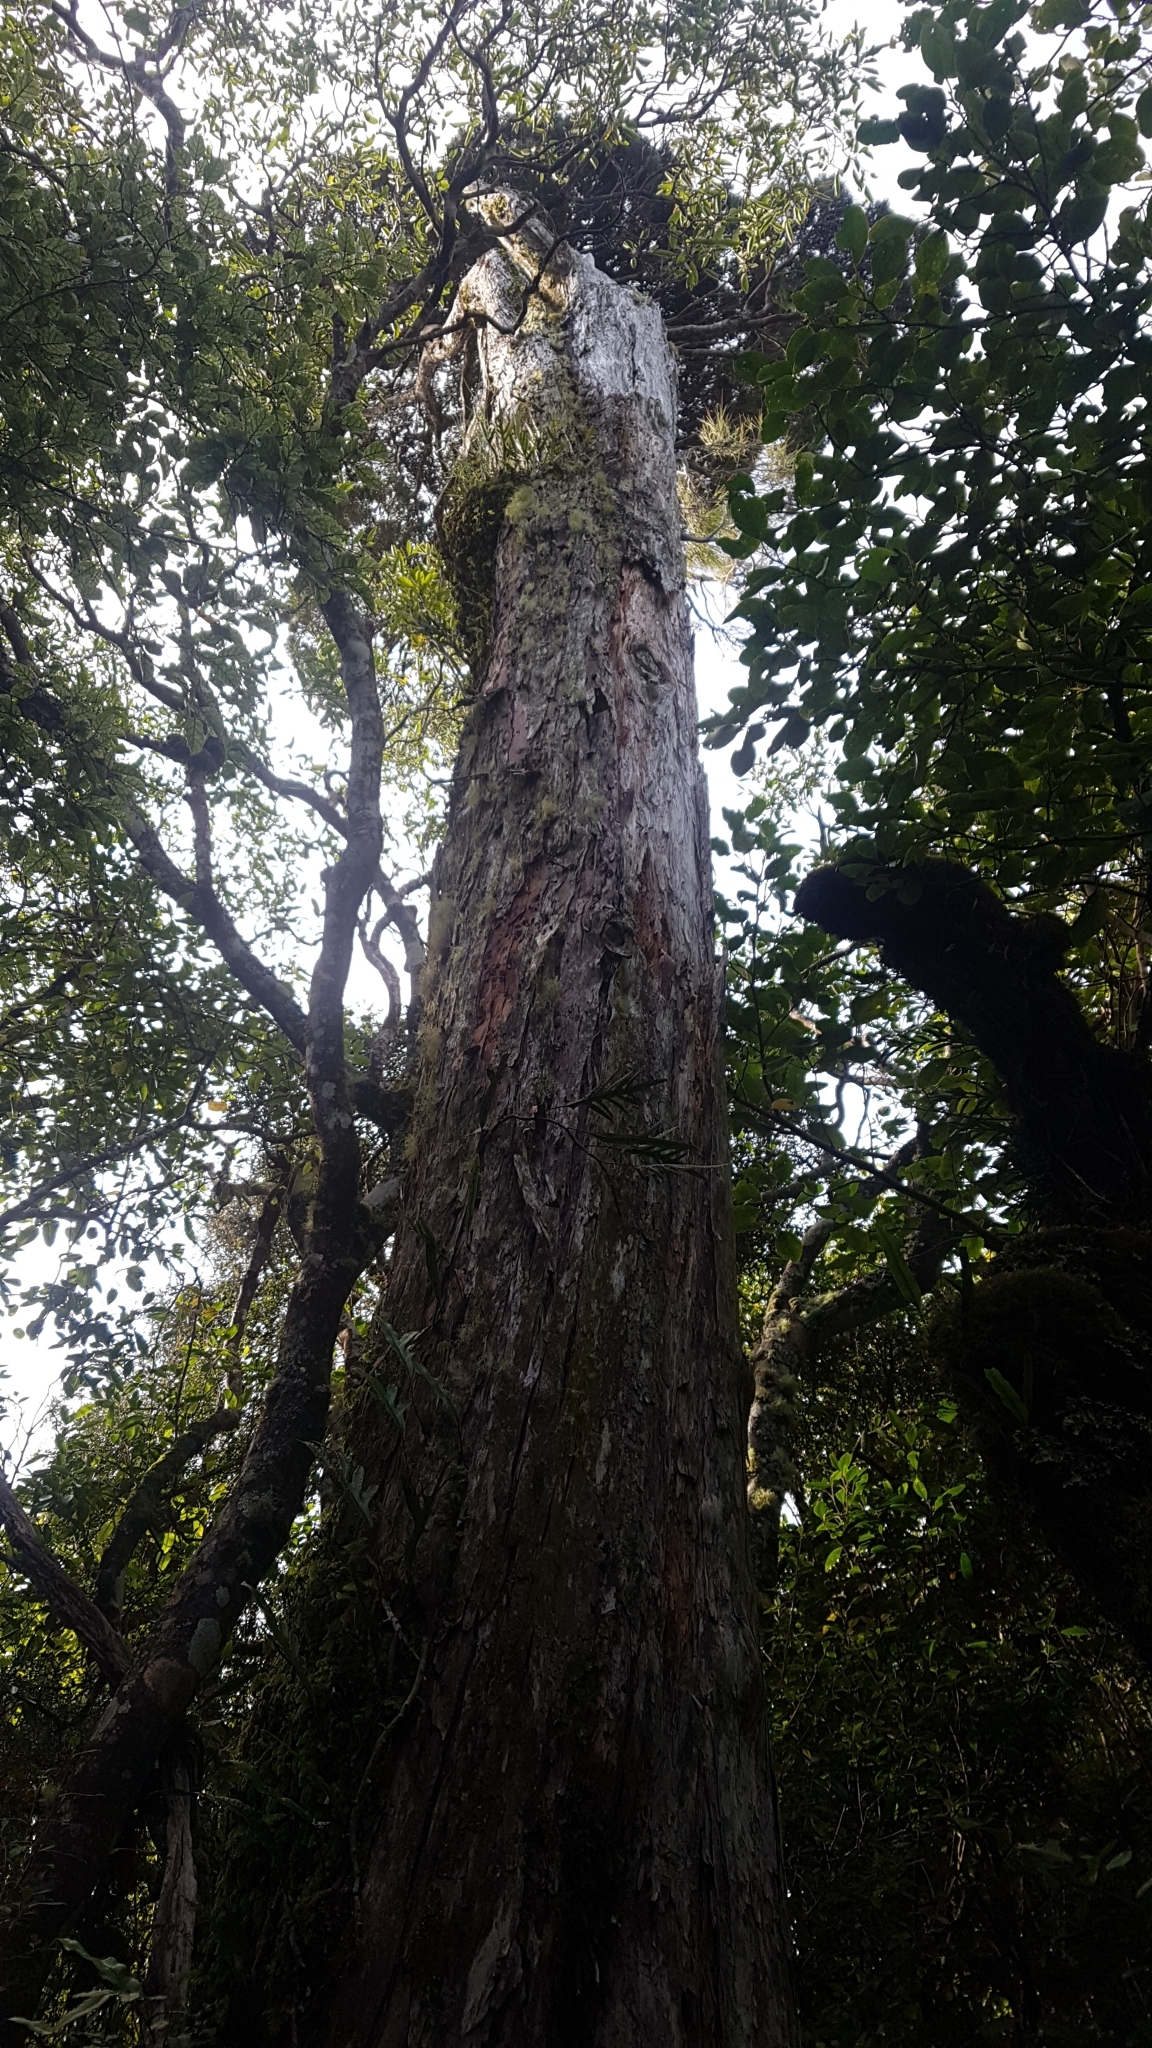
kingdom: Plantae
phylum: Tracheophyta
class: Pinopsida
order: Pinales
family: Cupressaceae
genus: Libocedrus
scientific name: Libocedrus bidwillii
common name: Cedar
